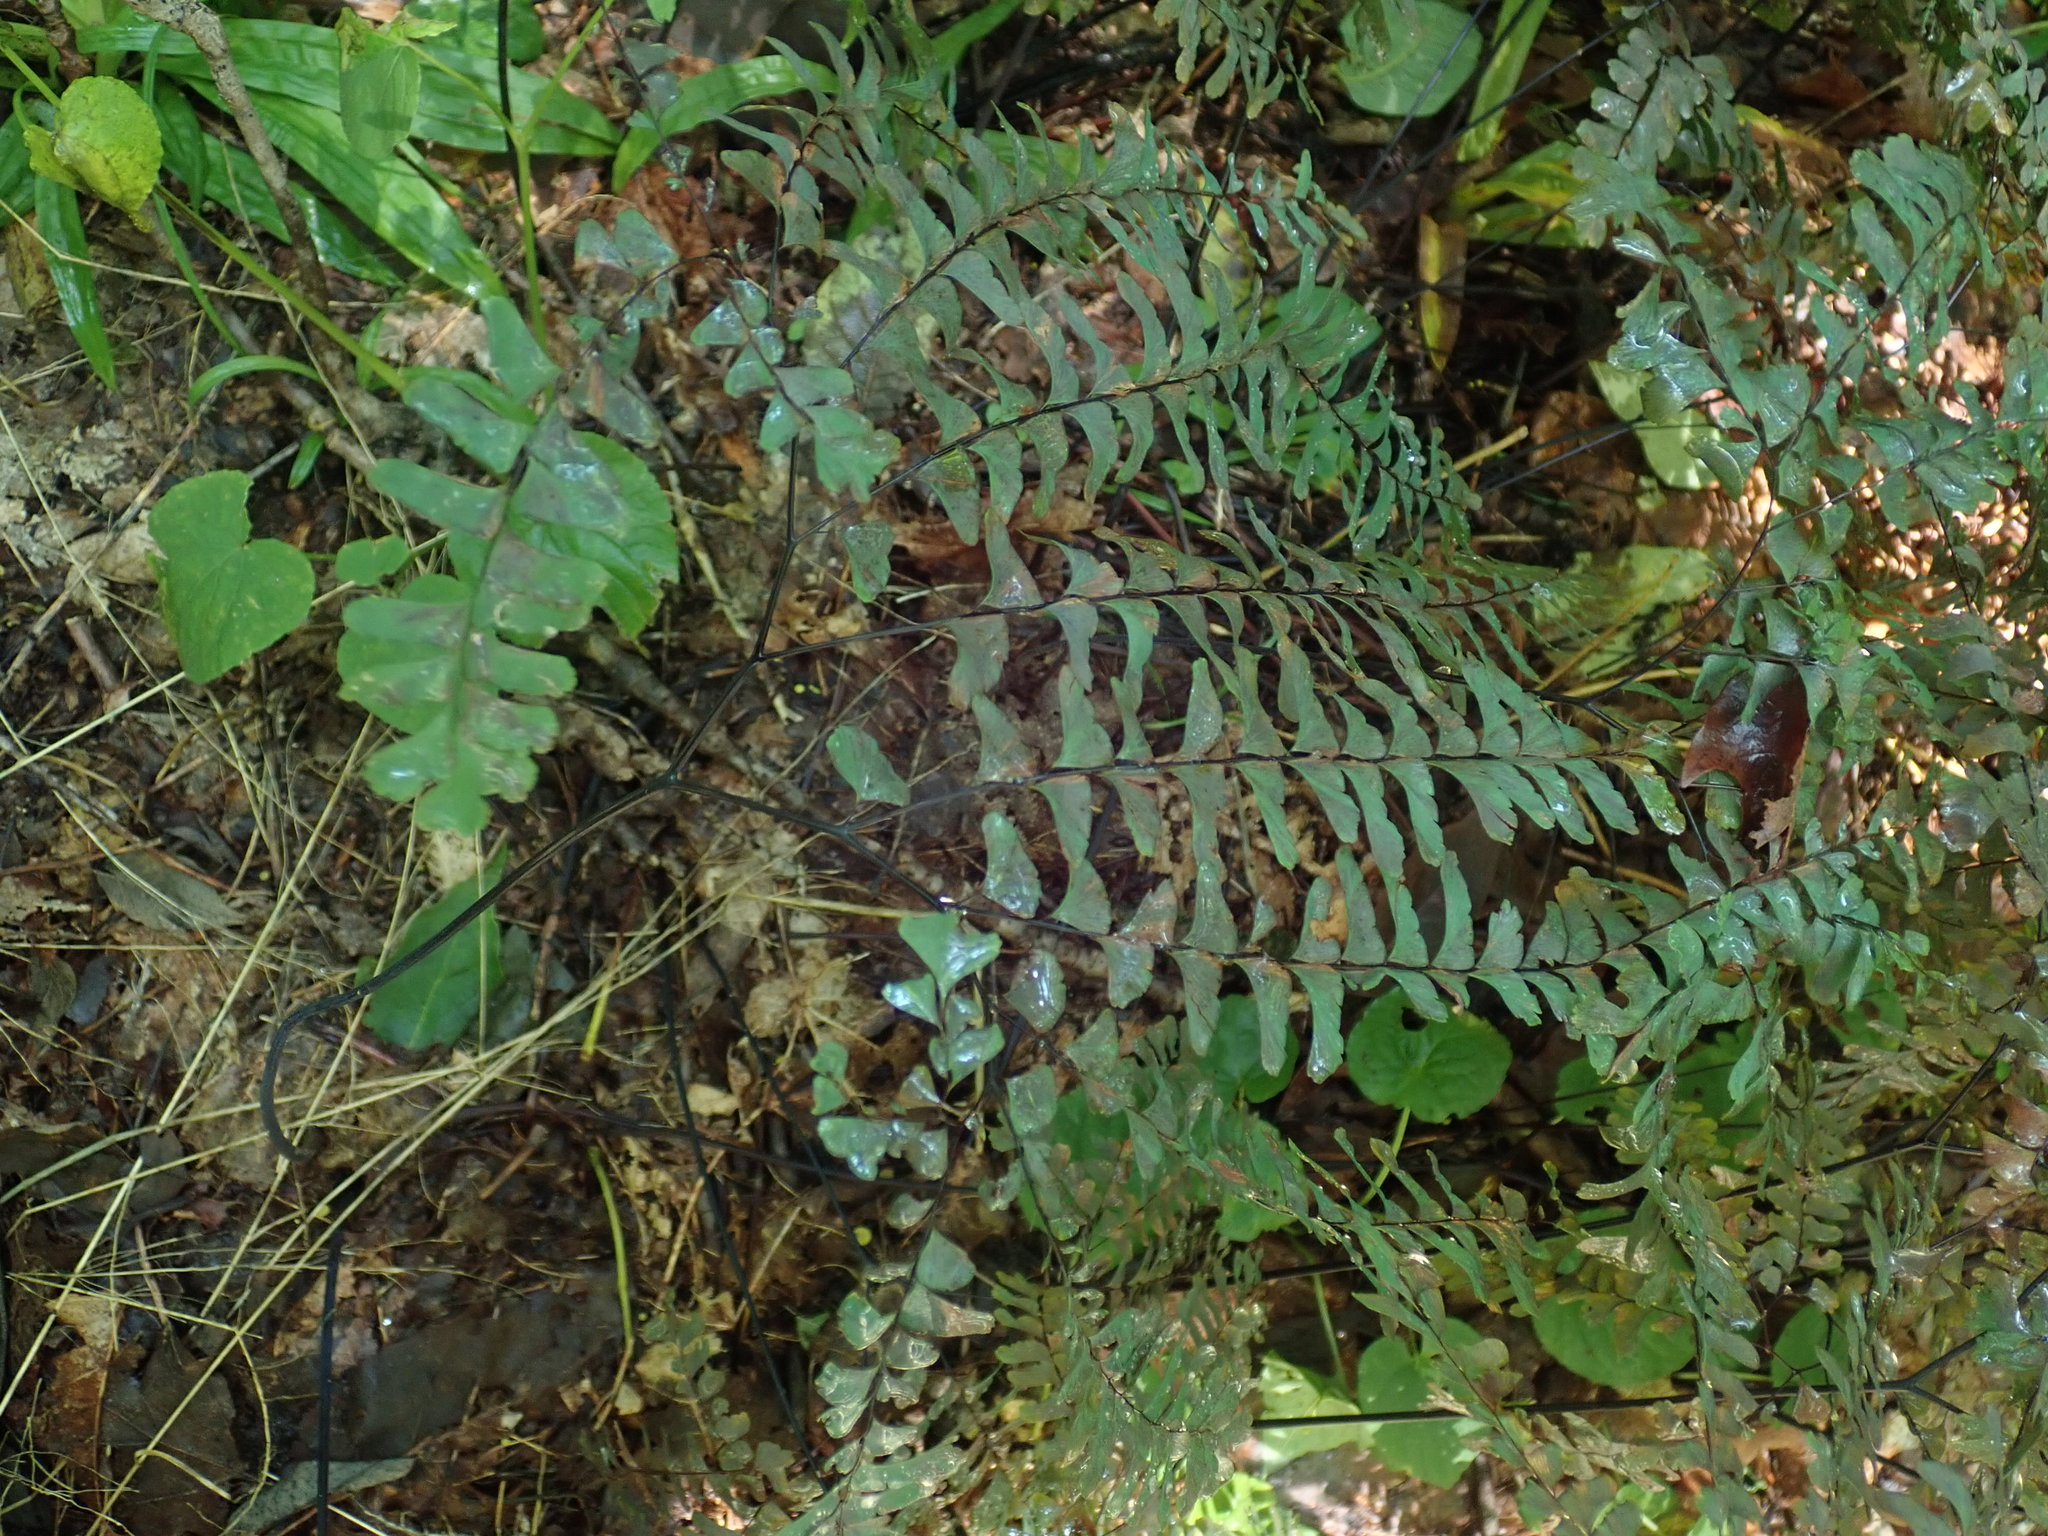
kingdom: Plantae
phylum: Tracheophyta
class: Polypodiopsida
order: Polypodiales
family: Pteridaceae
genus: Adiantum
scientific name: Adiantum pedatum
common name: Five-finger fern
